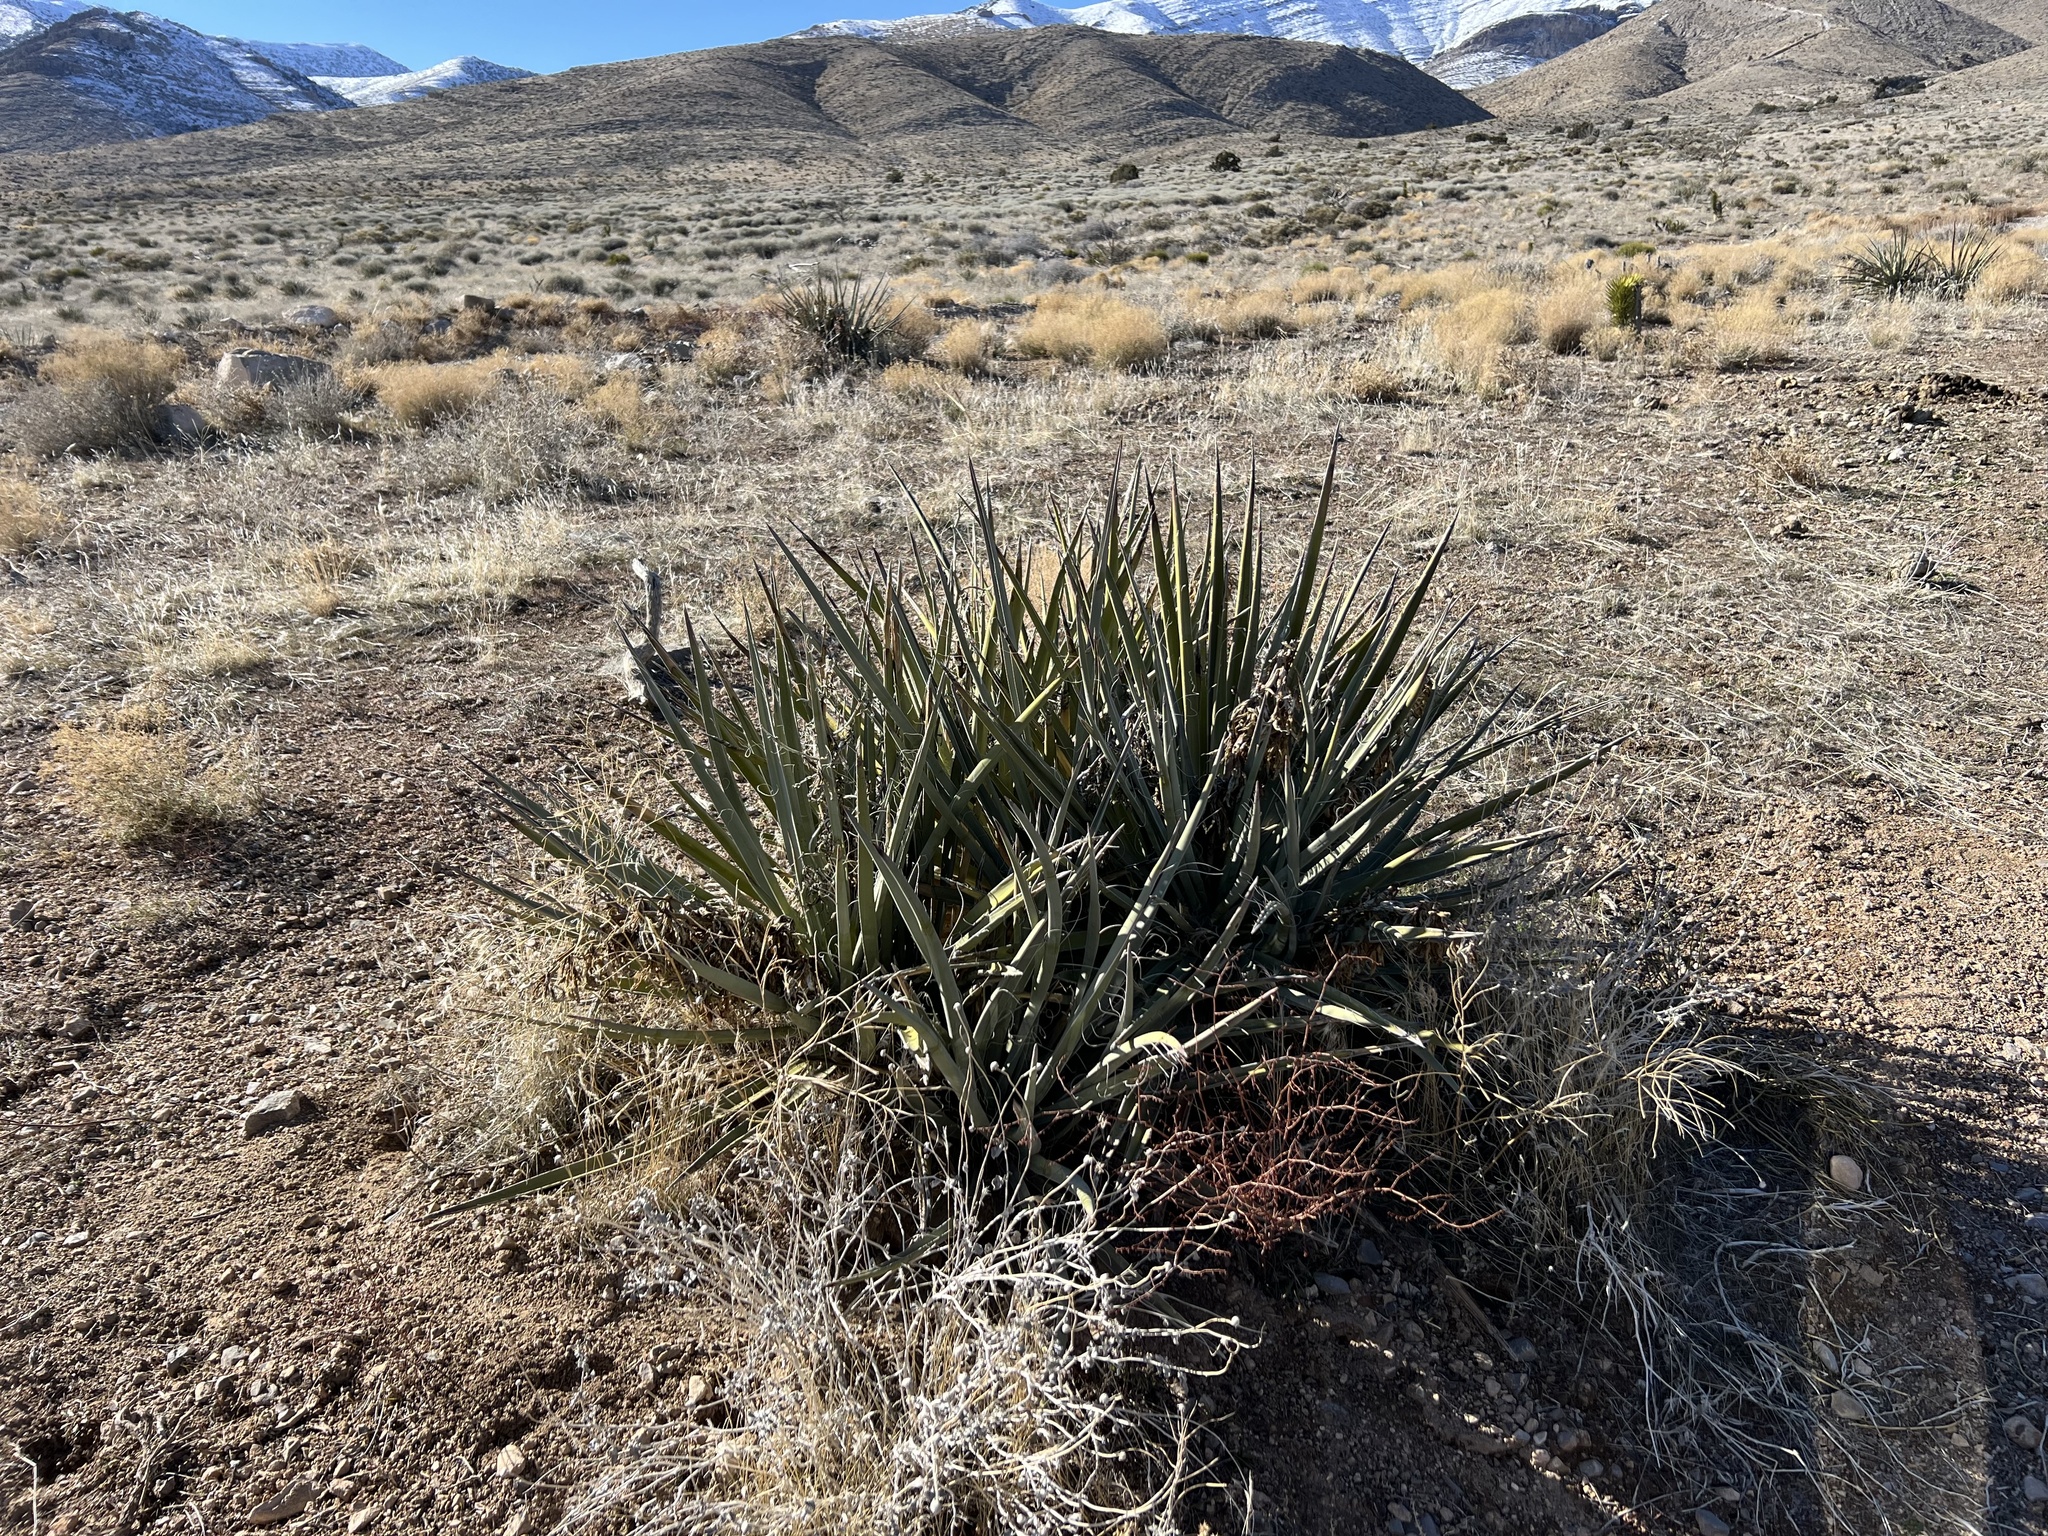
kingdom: Plantae
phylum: Tracheophyta
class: Liliopsida
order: Asparagales
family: Asparagaceae
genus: Yucca
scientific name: Yucca baccata
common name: Banana yucca
